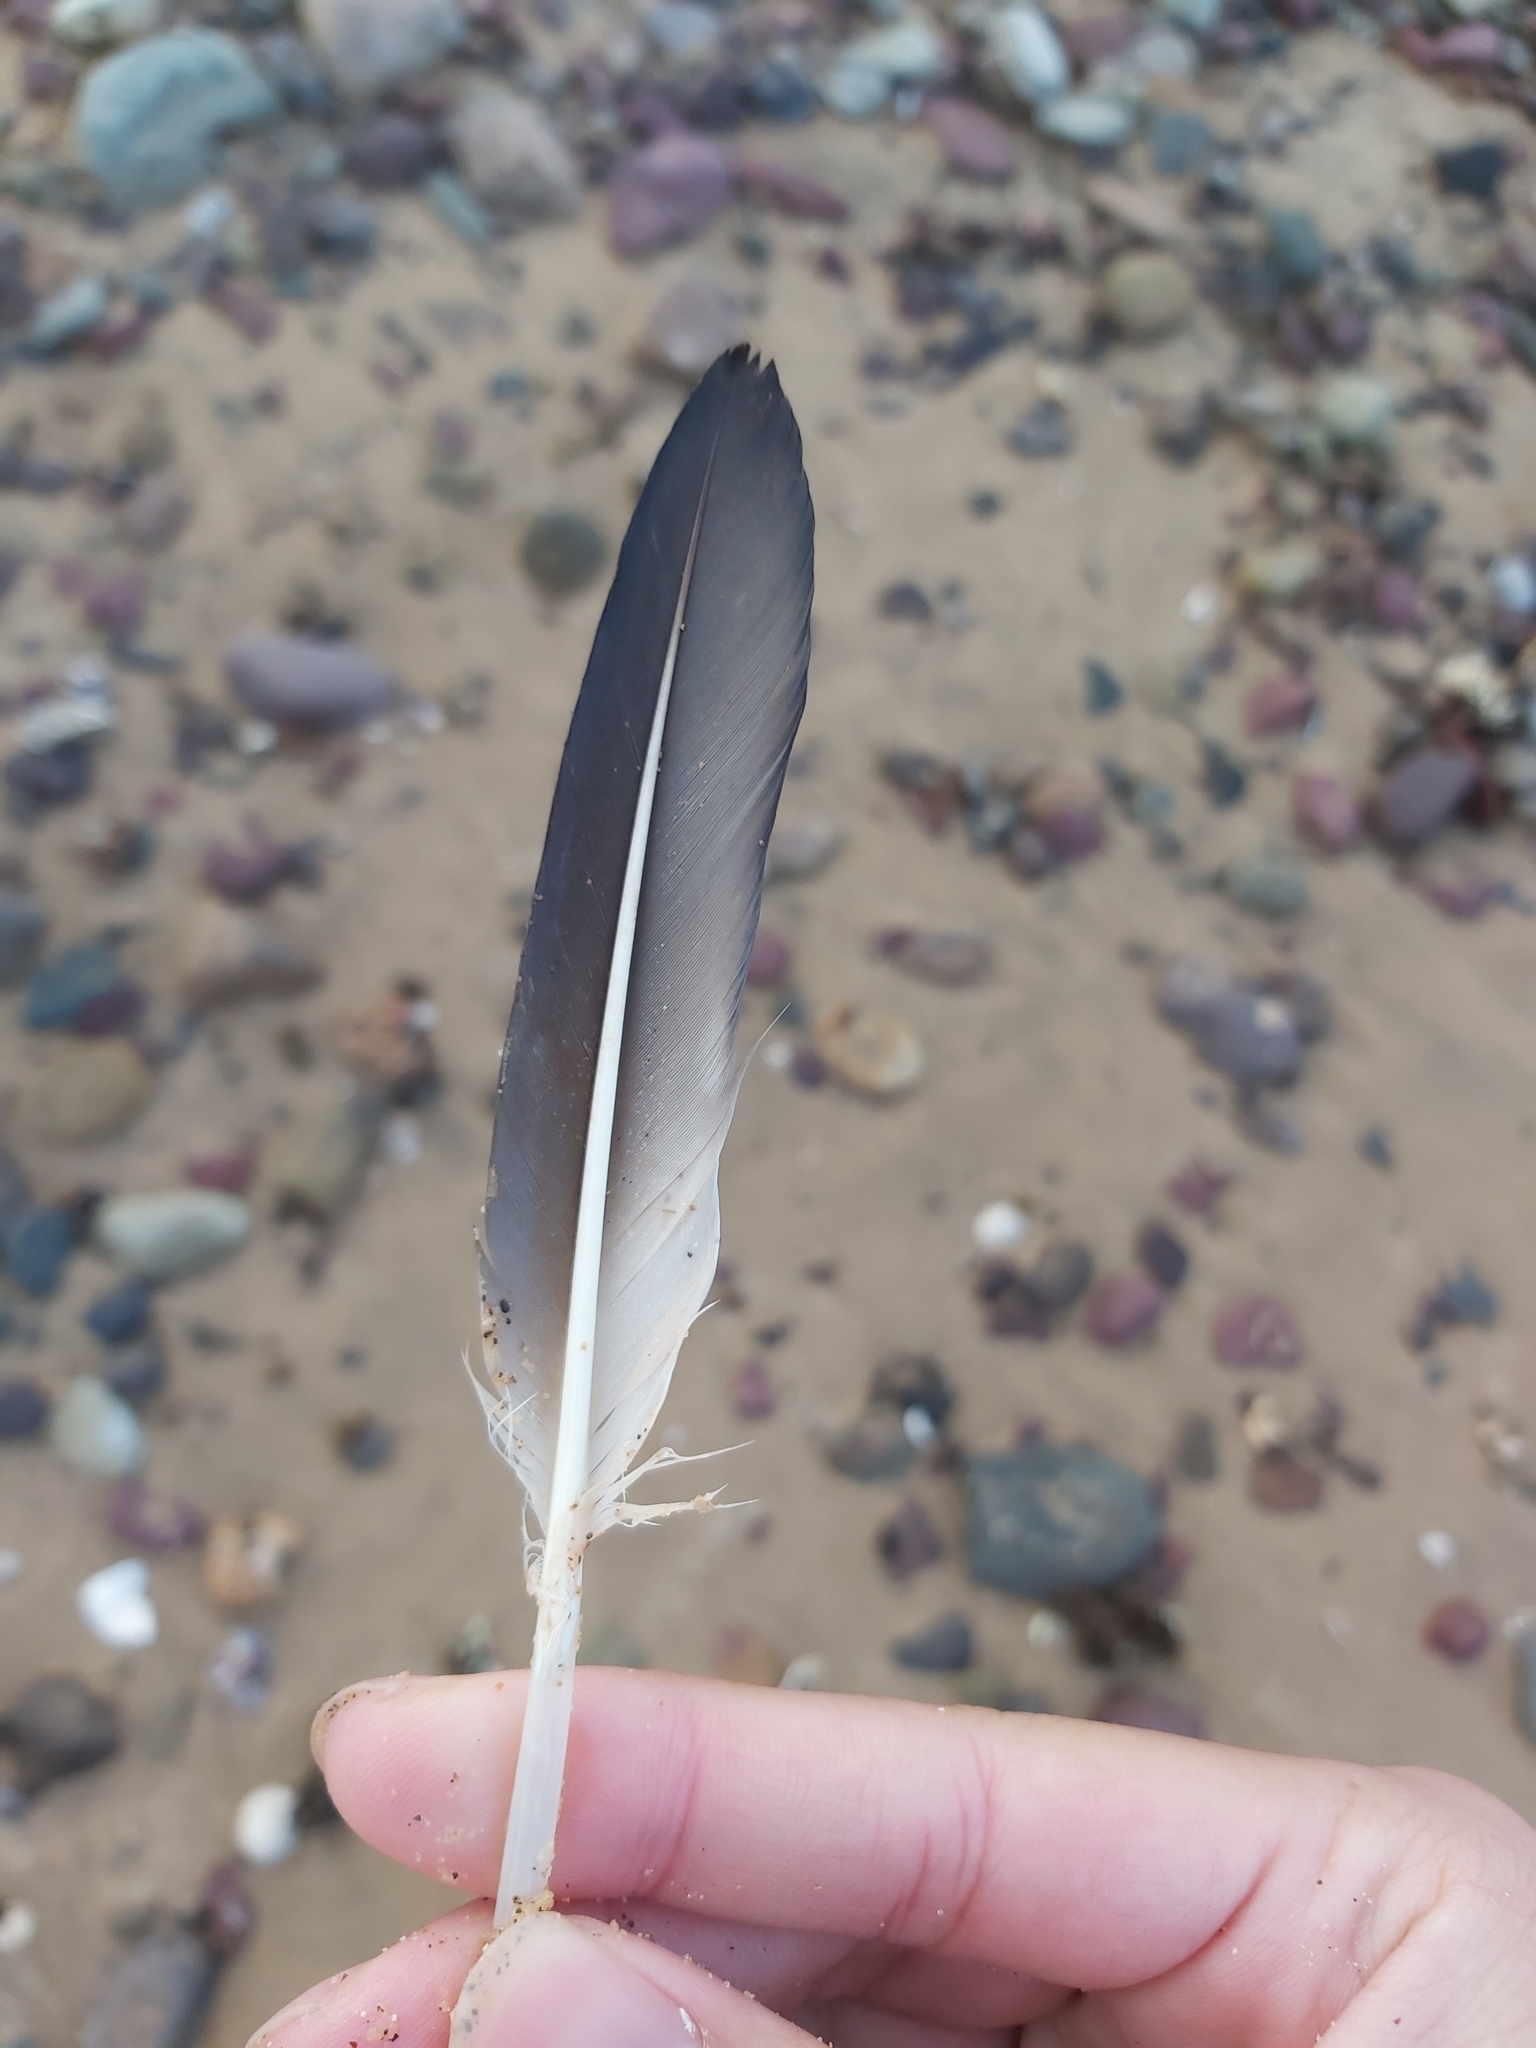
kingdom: Animalia
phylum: Chordata
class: Aves
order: Suliformes
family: Sulidae
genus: Morus
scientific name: Morus serrator
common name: Australasian gannet
